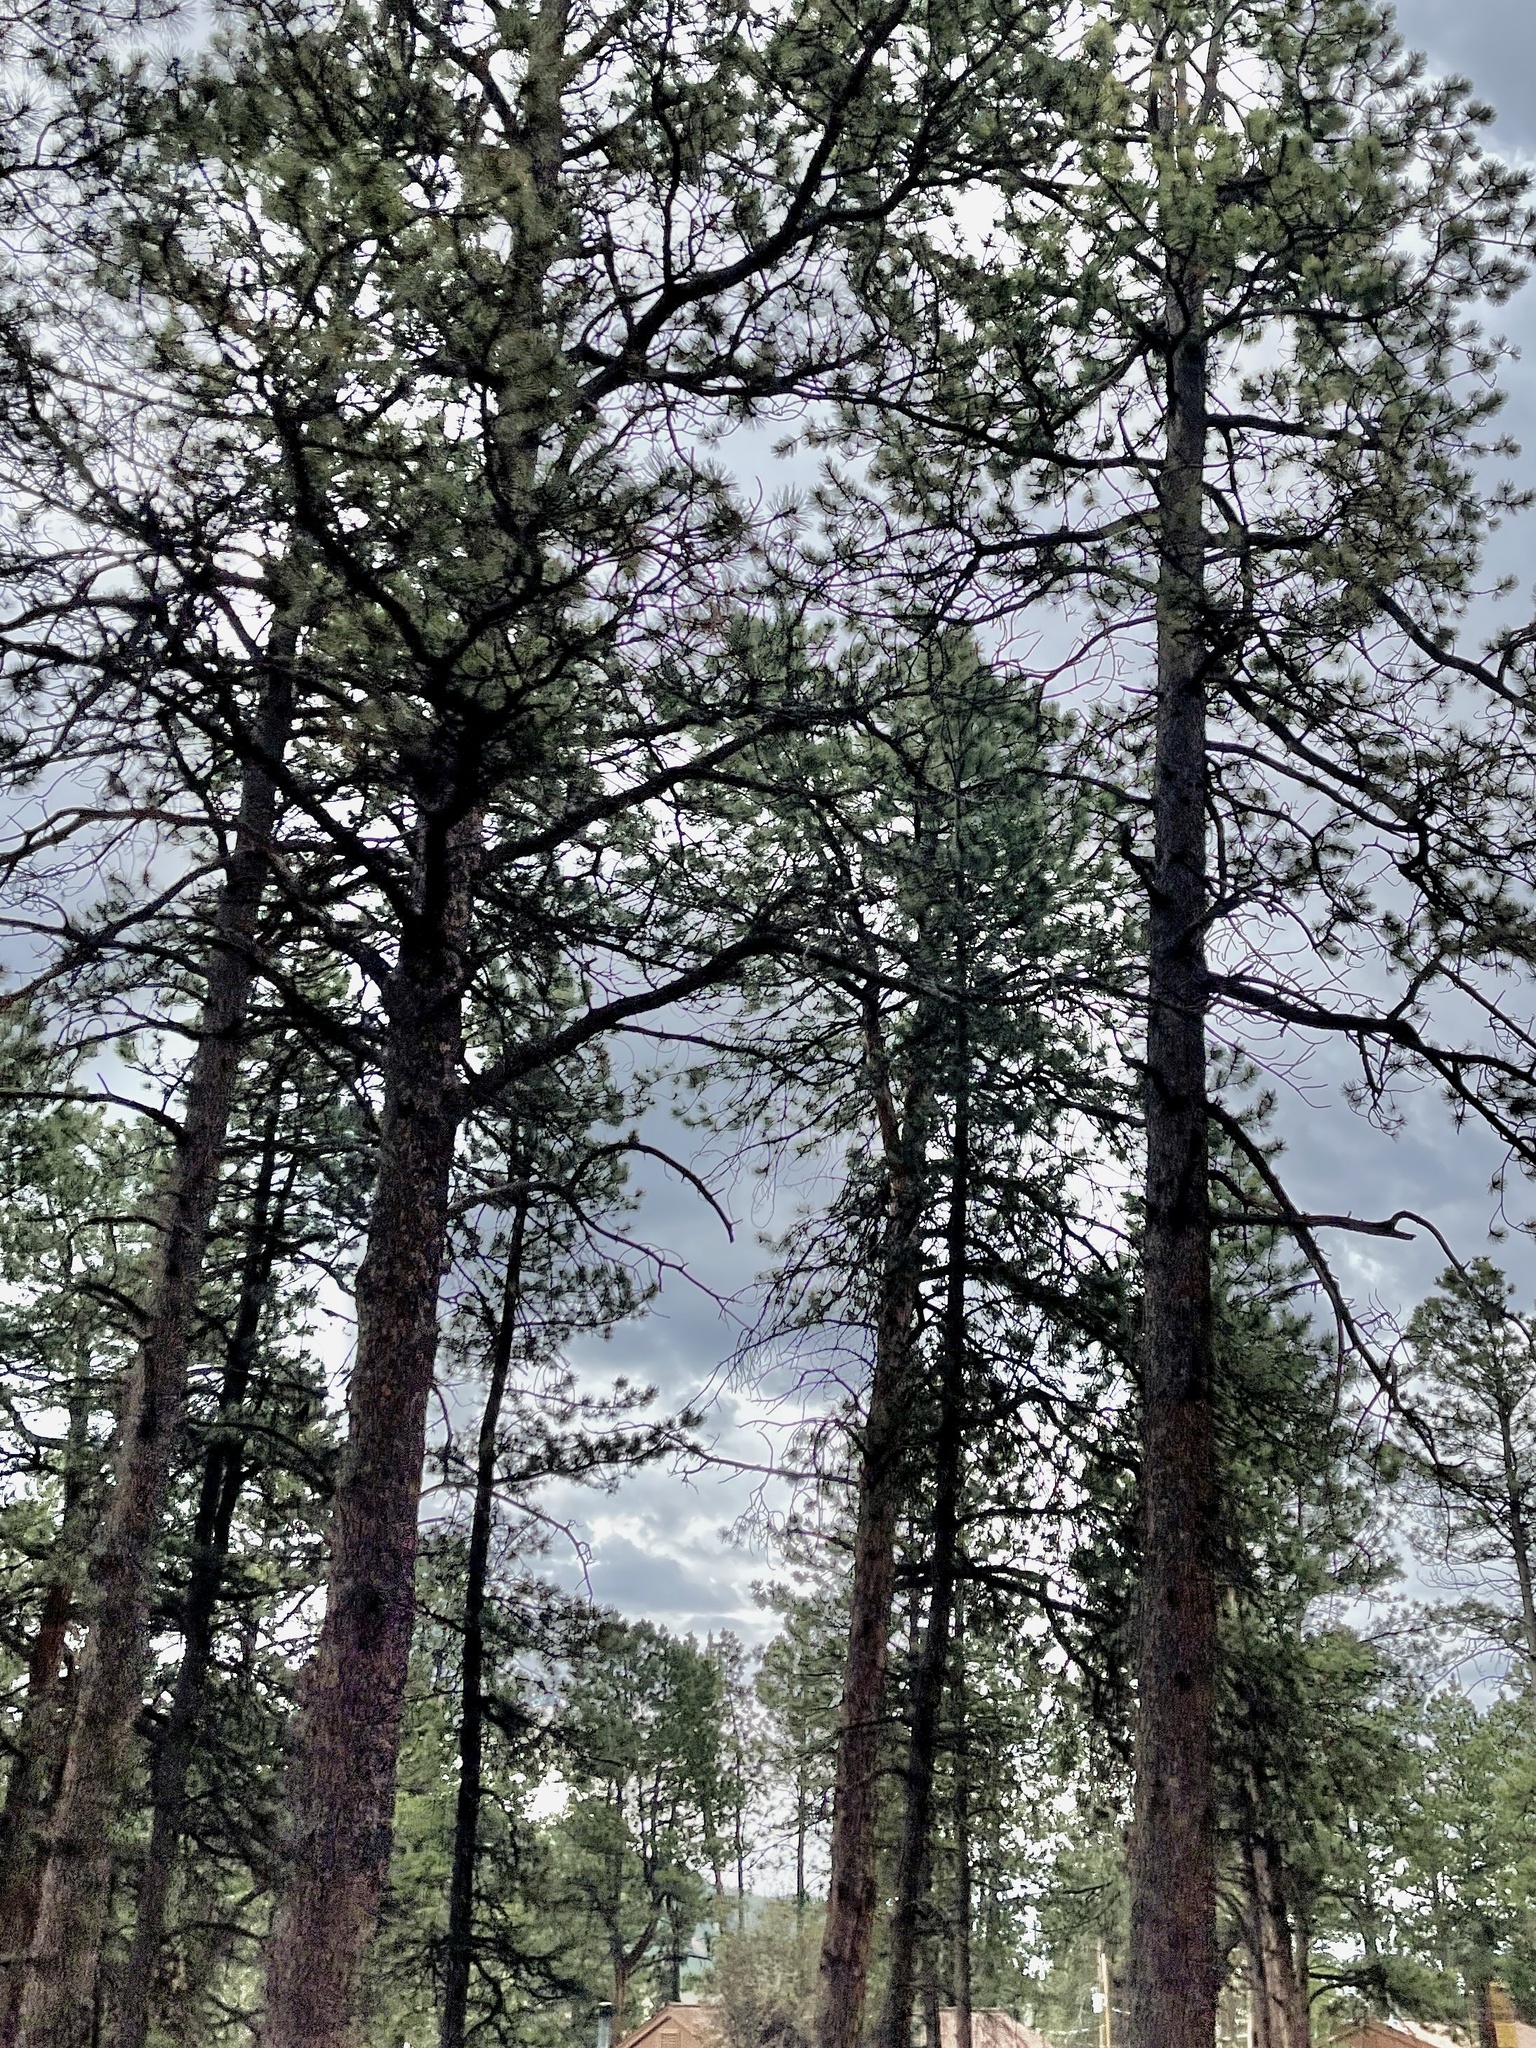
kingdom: Plantae
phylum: Tracheophyta
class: Pinopsida
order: Pinales
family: Pinaceae
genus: Pinus
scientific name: Pinus ponderosa
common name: Western yellow-pine
